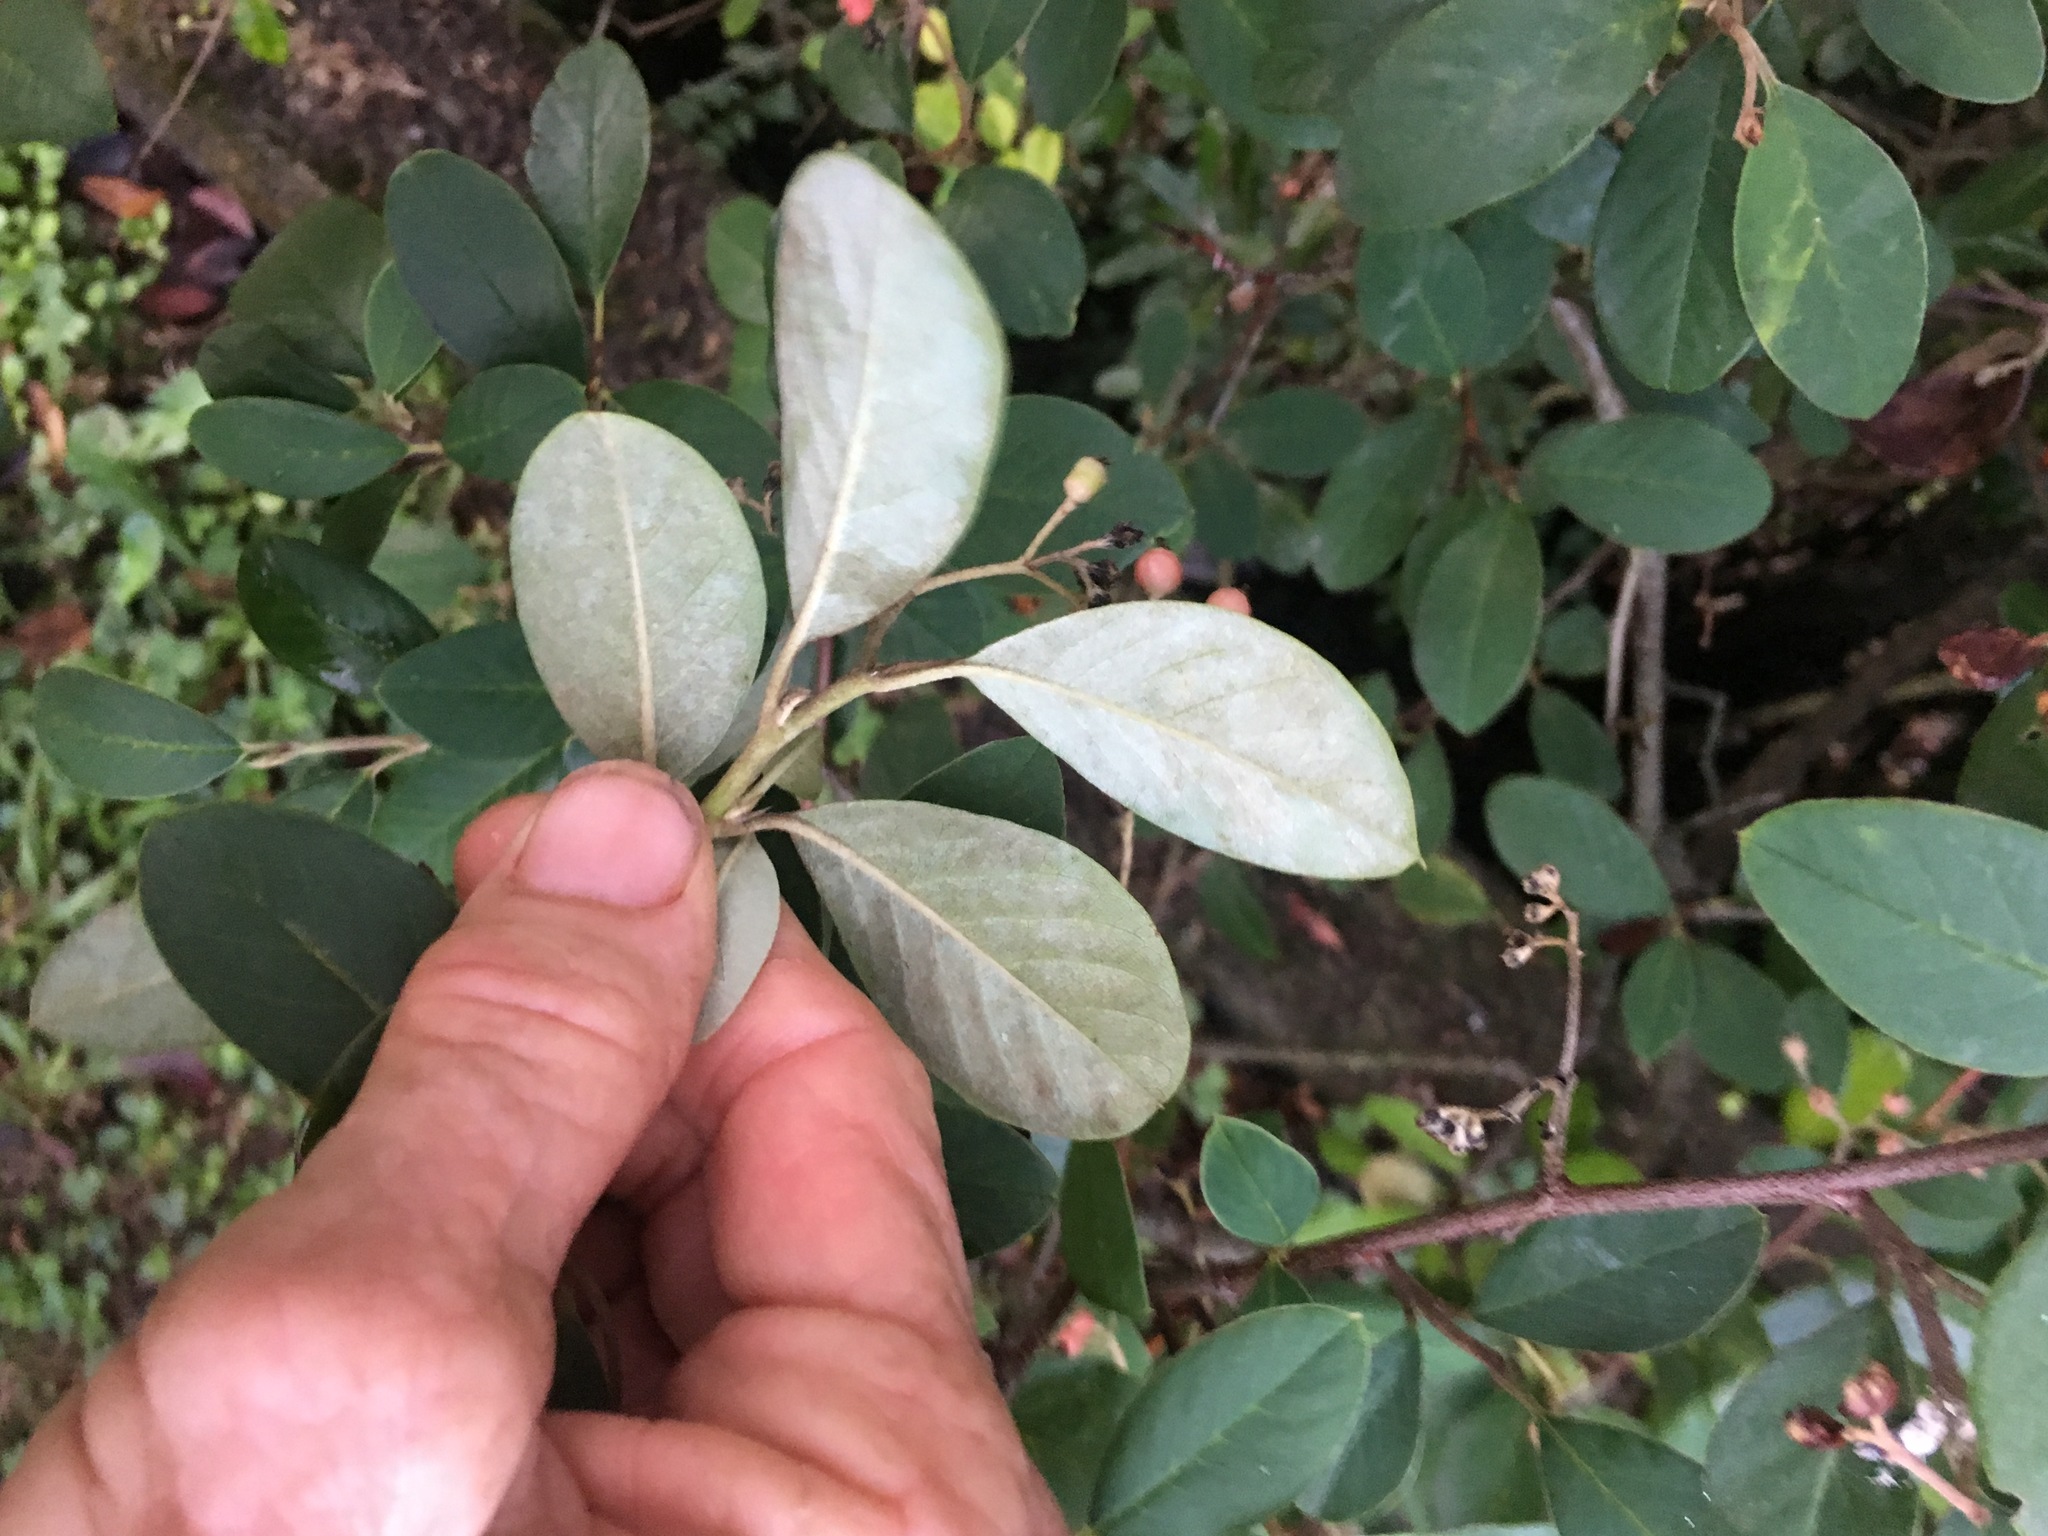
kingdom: Plantae
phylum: Tracheophyta
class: Magnoliopsida
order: Rosales
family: Rosaceae
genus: Cotoneaster
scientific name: Cotoneaster glaucophyllus
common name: Glaucous cotoneaster
